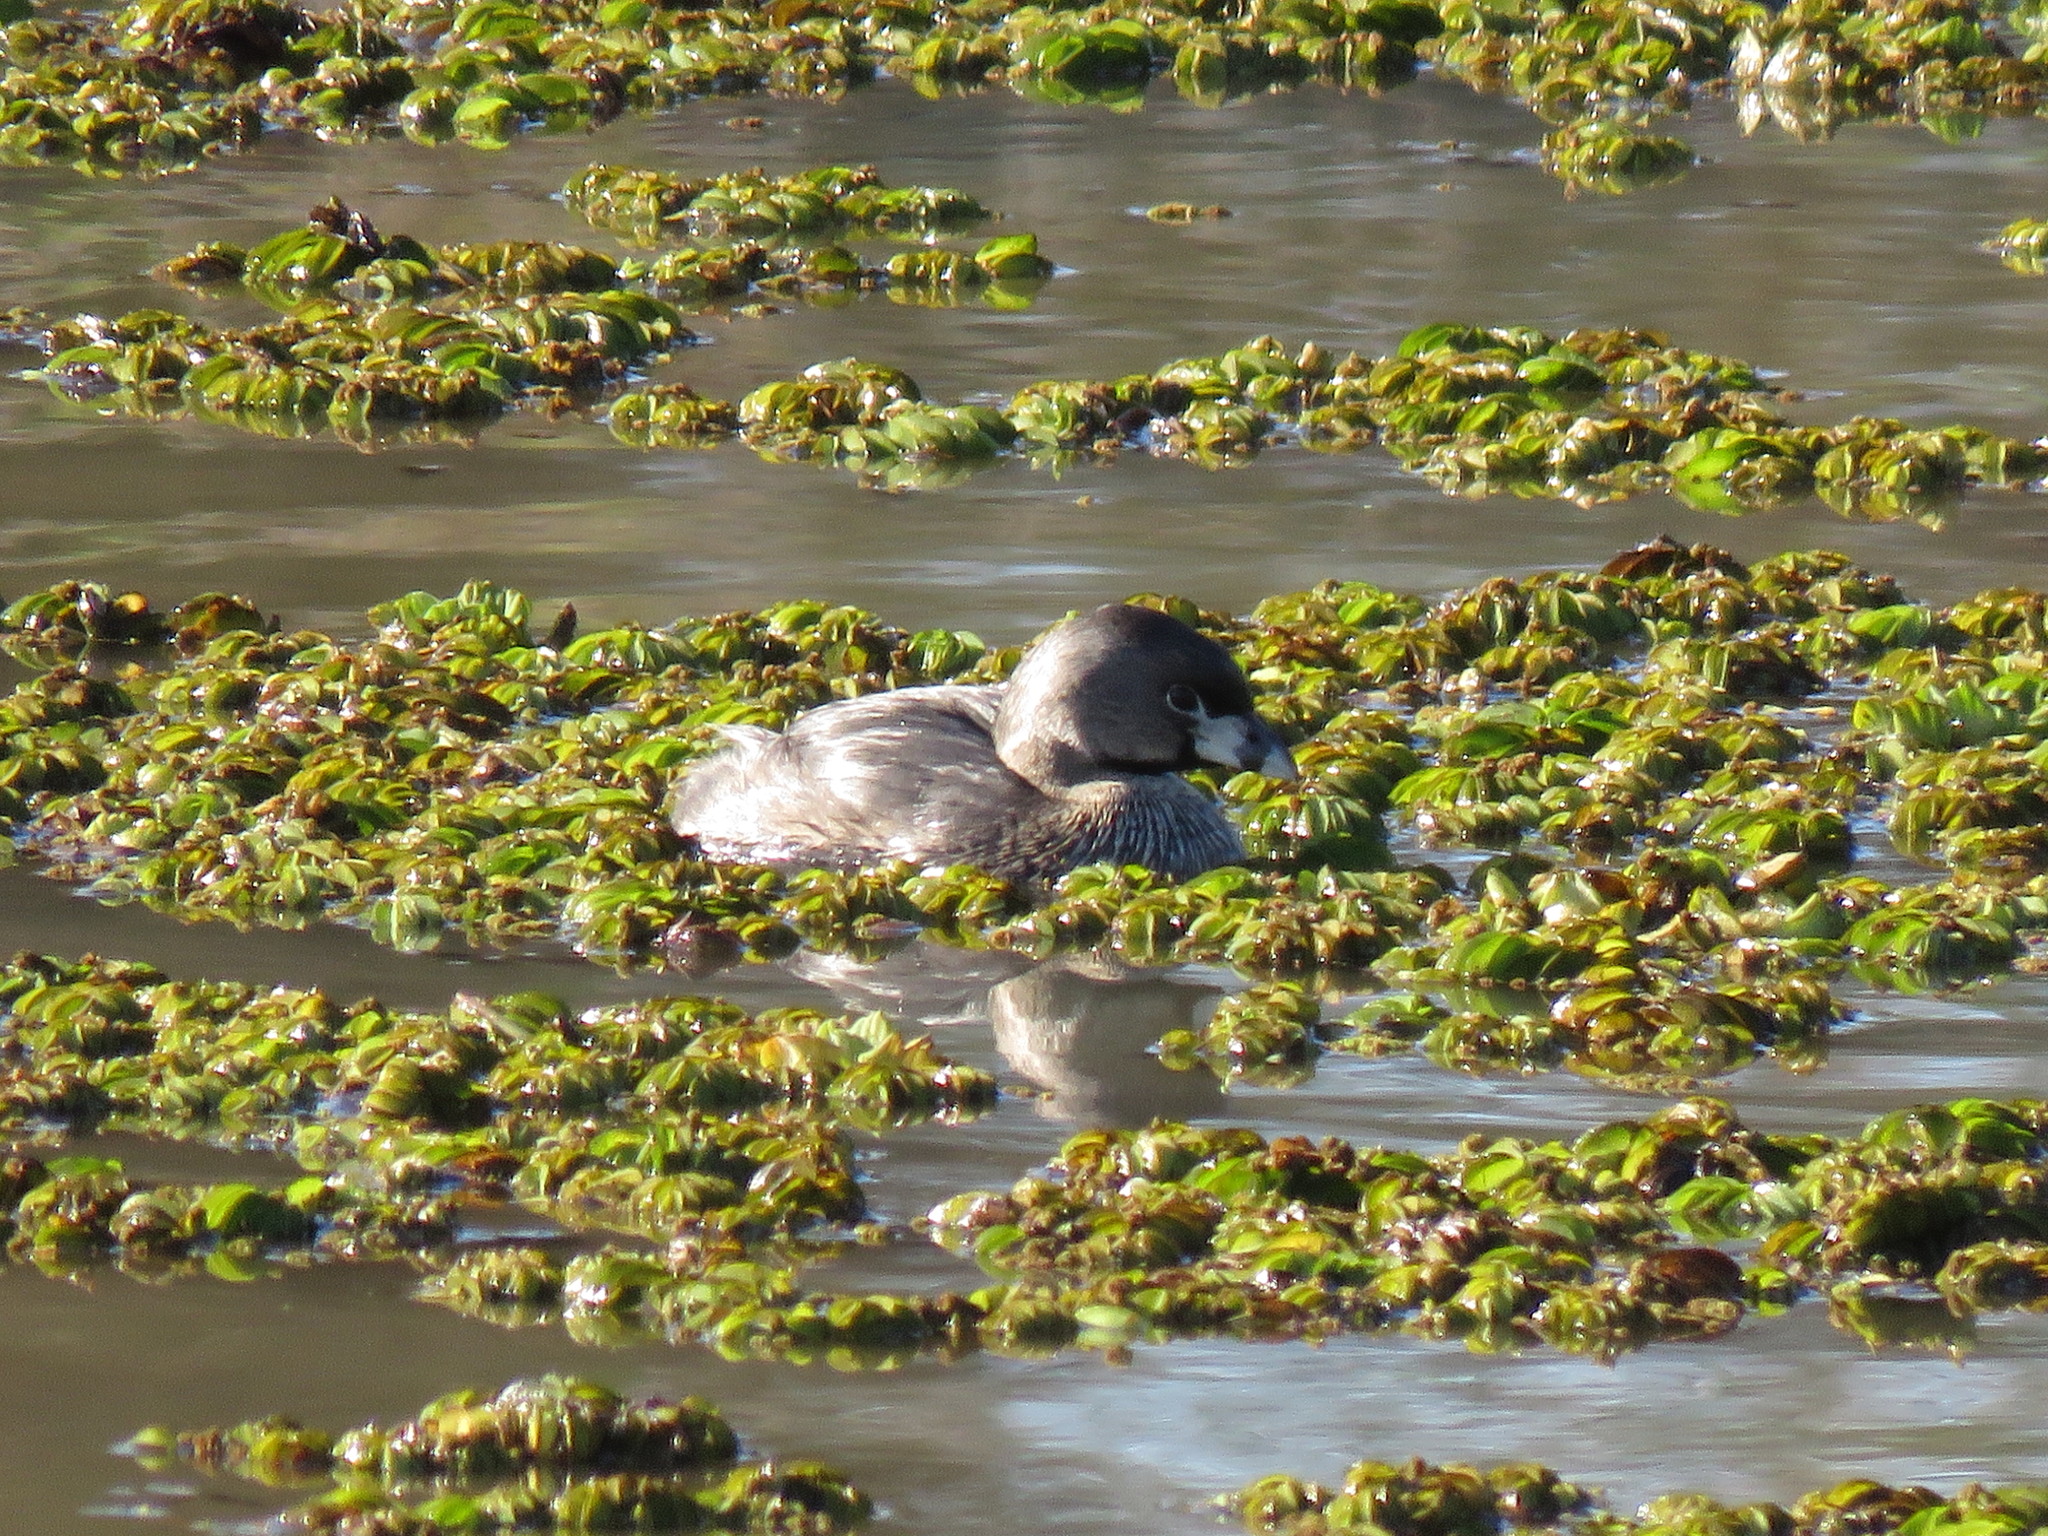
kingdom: Animalia
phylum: Chordata
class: Aves
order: Podicipediformes
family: Podicipedidae
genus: Podilymbus
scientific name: Podilymbus podiceps
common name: Pied-billed grebe
